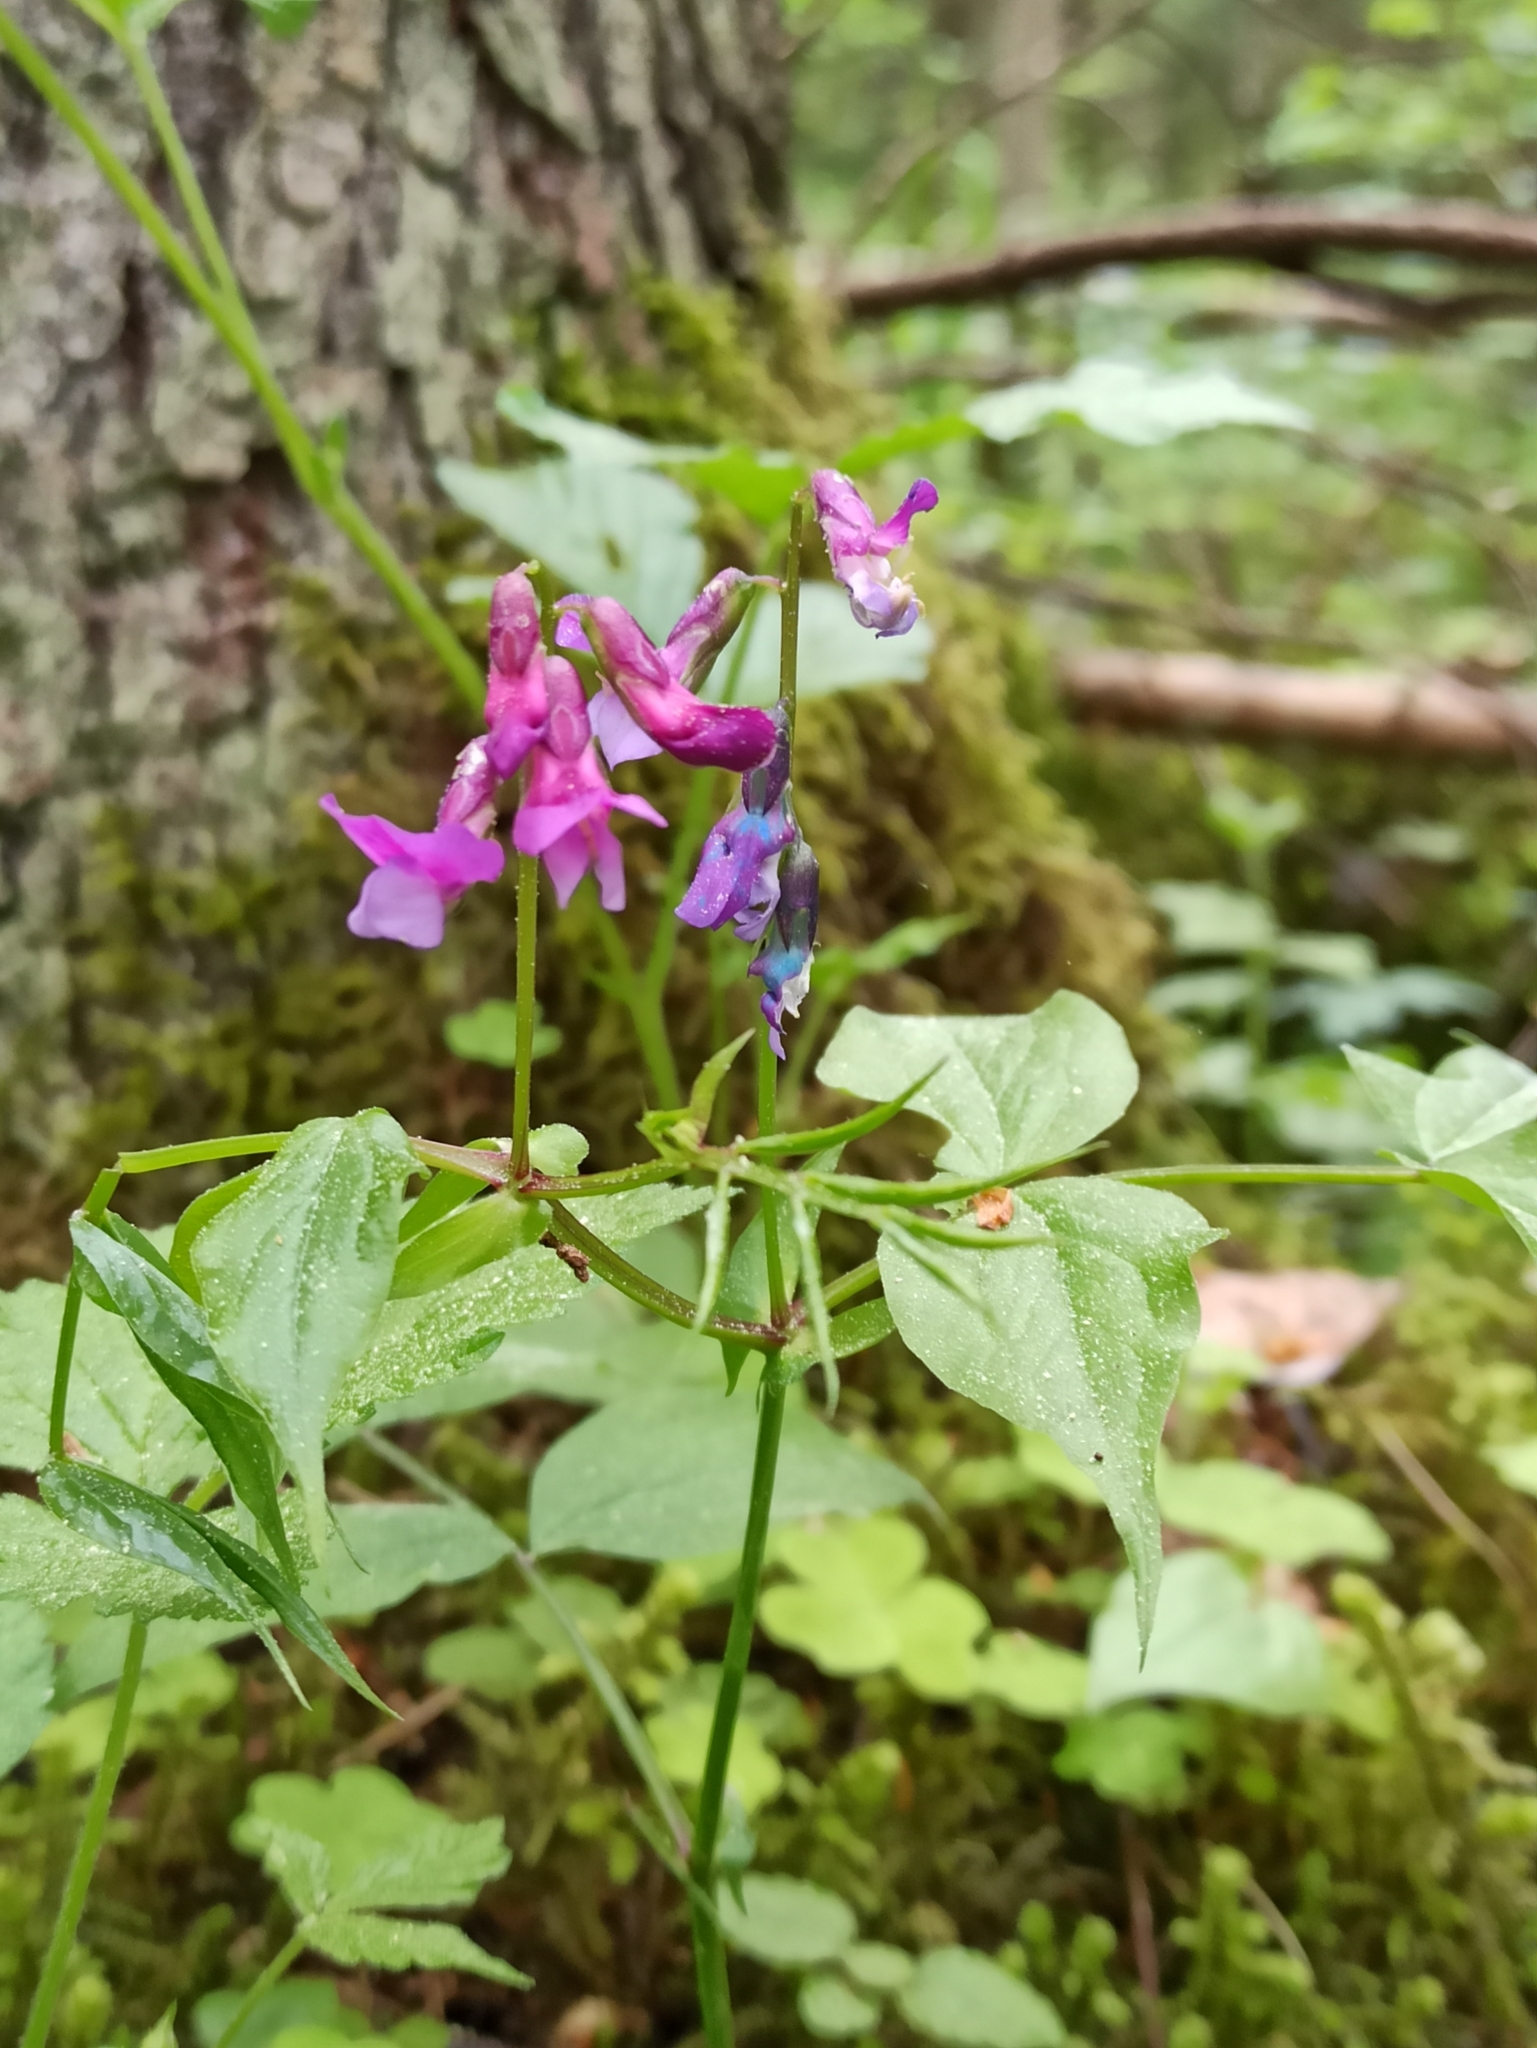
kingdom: Plantae
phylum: Tracheophyta
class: Magnoliopsida
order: Fabales
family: Fabaceae
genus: Lathyrus
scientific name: Lathyrus vernus
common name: Spring pea
